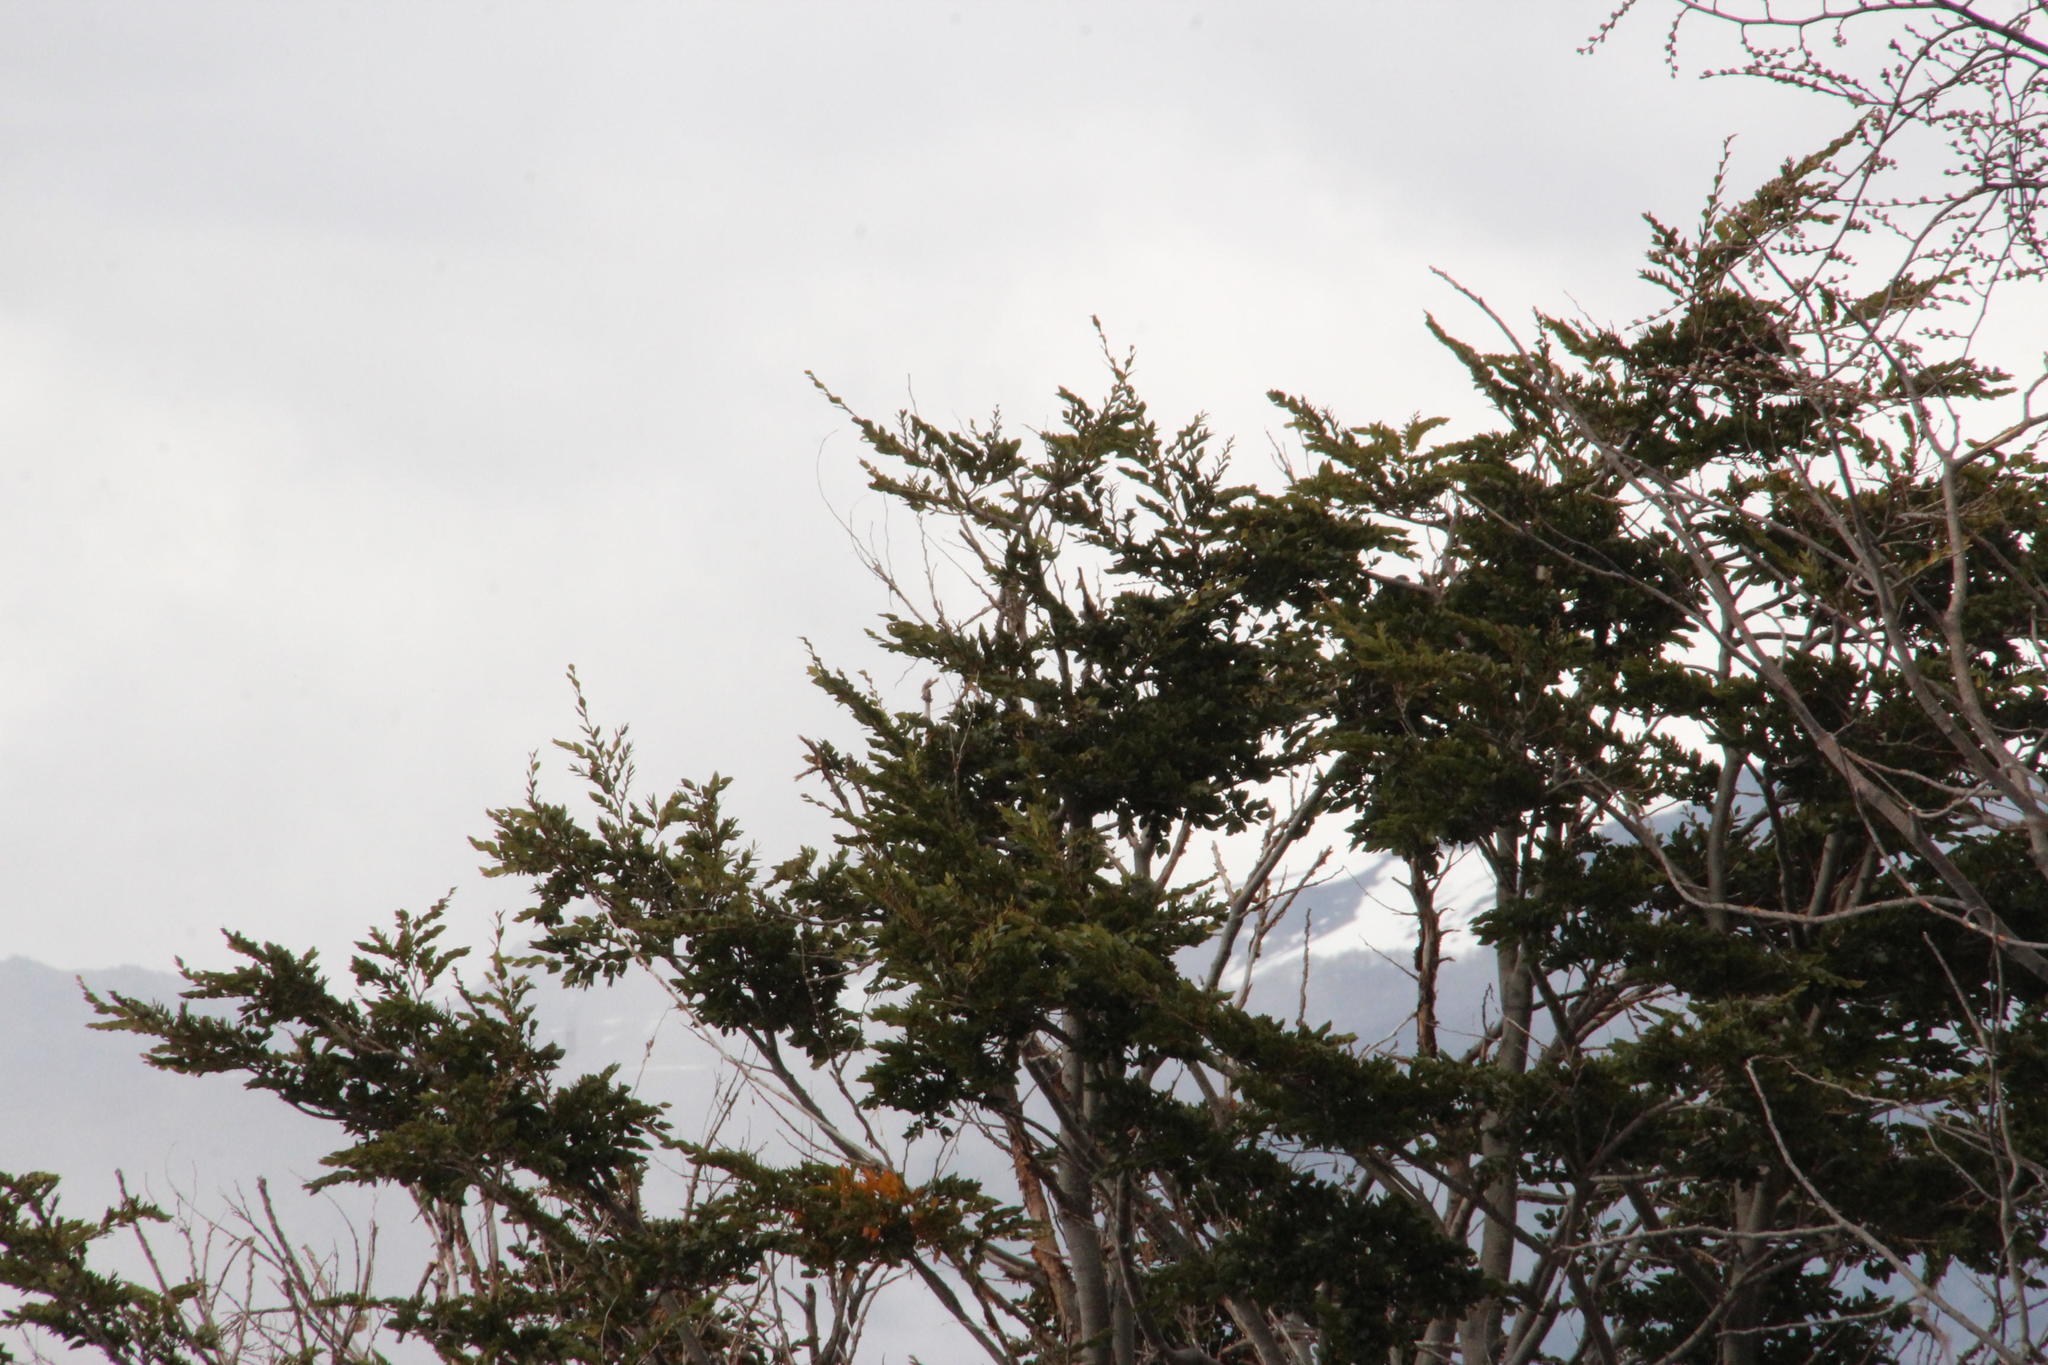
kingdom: Plantae
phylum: Tracheophyta
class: Magnoliopsida
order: Fagales
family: Nothofagaceae
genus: Nothofagus
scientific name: Nothofagus dombeyi
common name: Coigue
